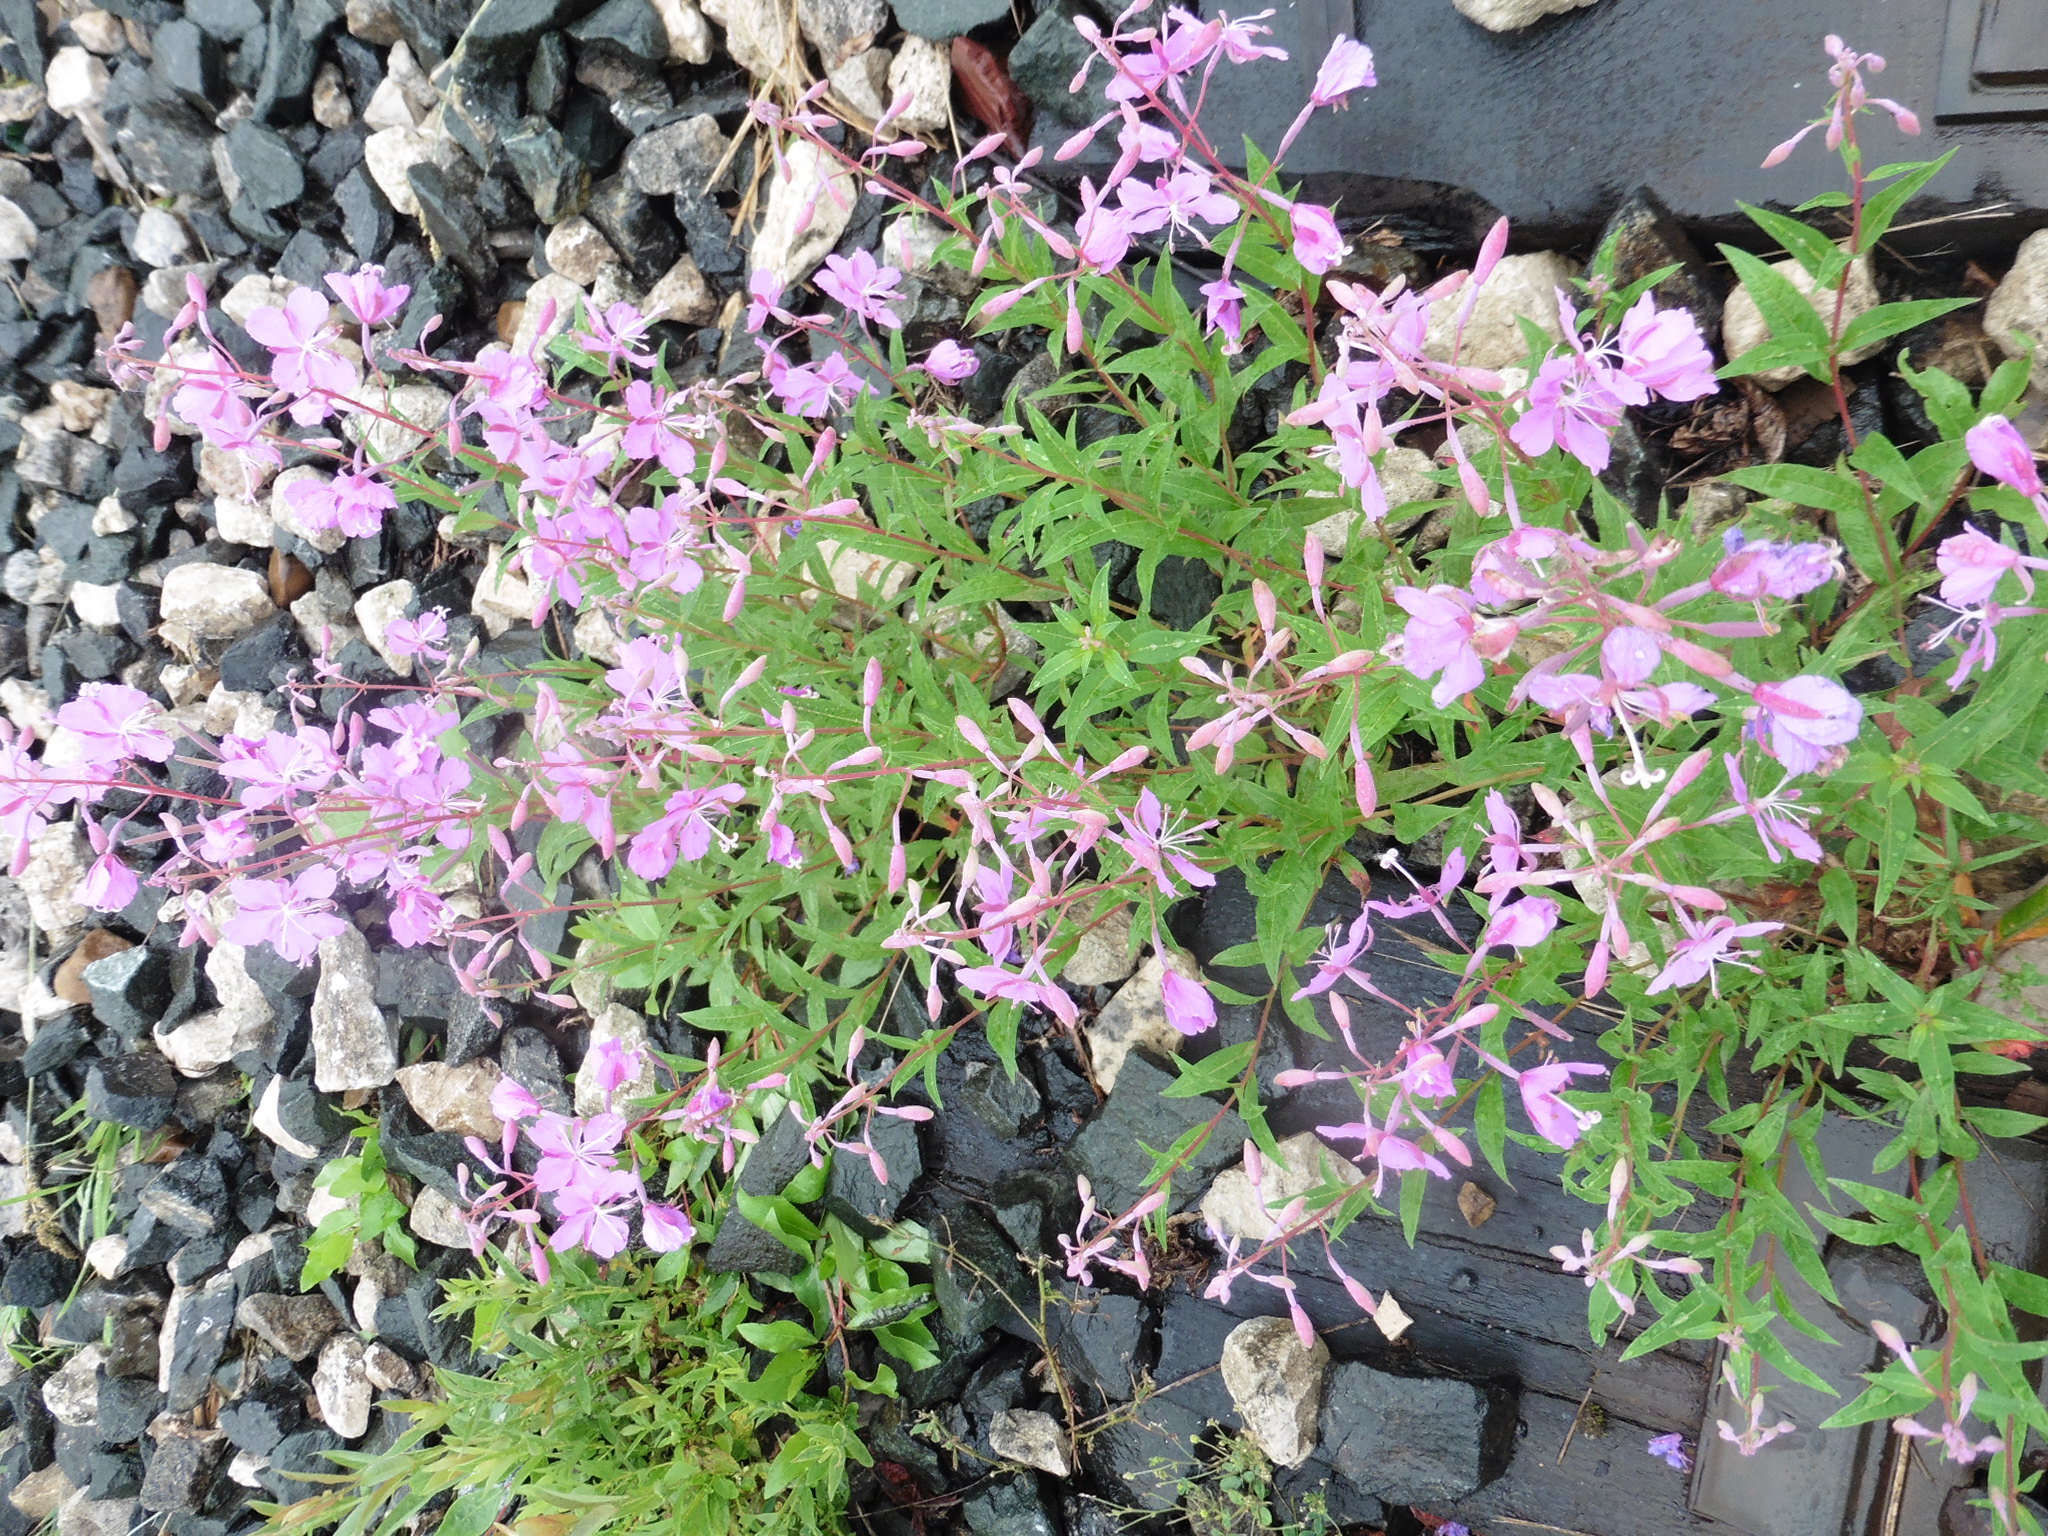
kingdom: Plantae
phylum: Tracheophyta
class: Magnoliopsida
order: Myrtales
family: Onagraceae
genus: Chamaenerion
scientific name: Chamaenerion angustifolium
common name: Fireweed
